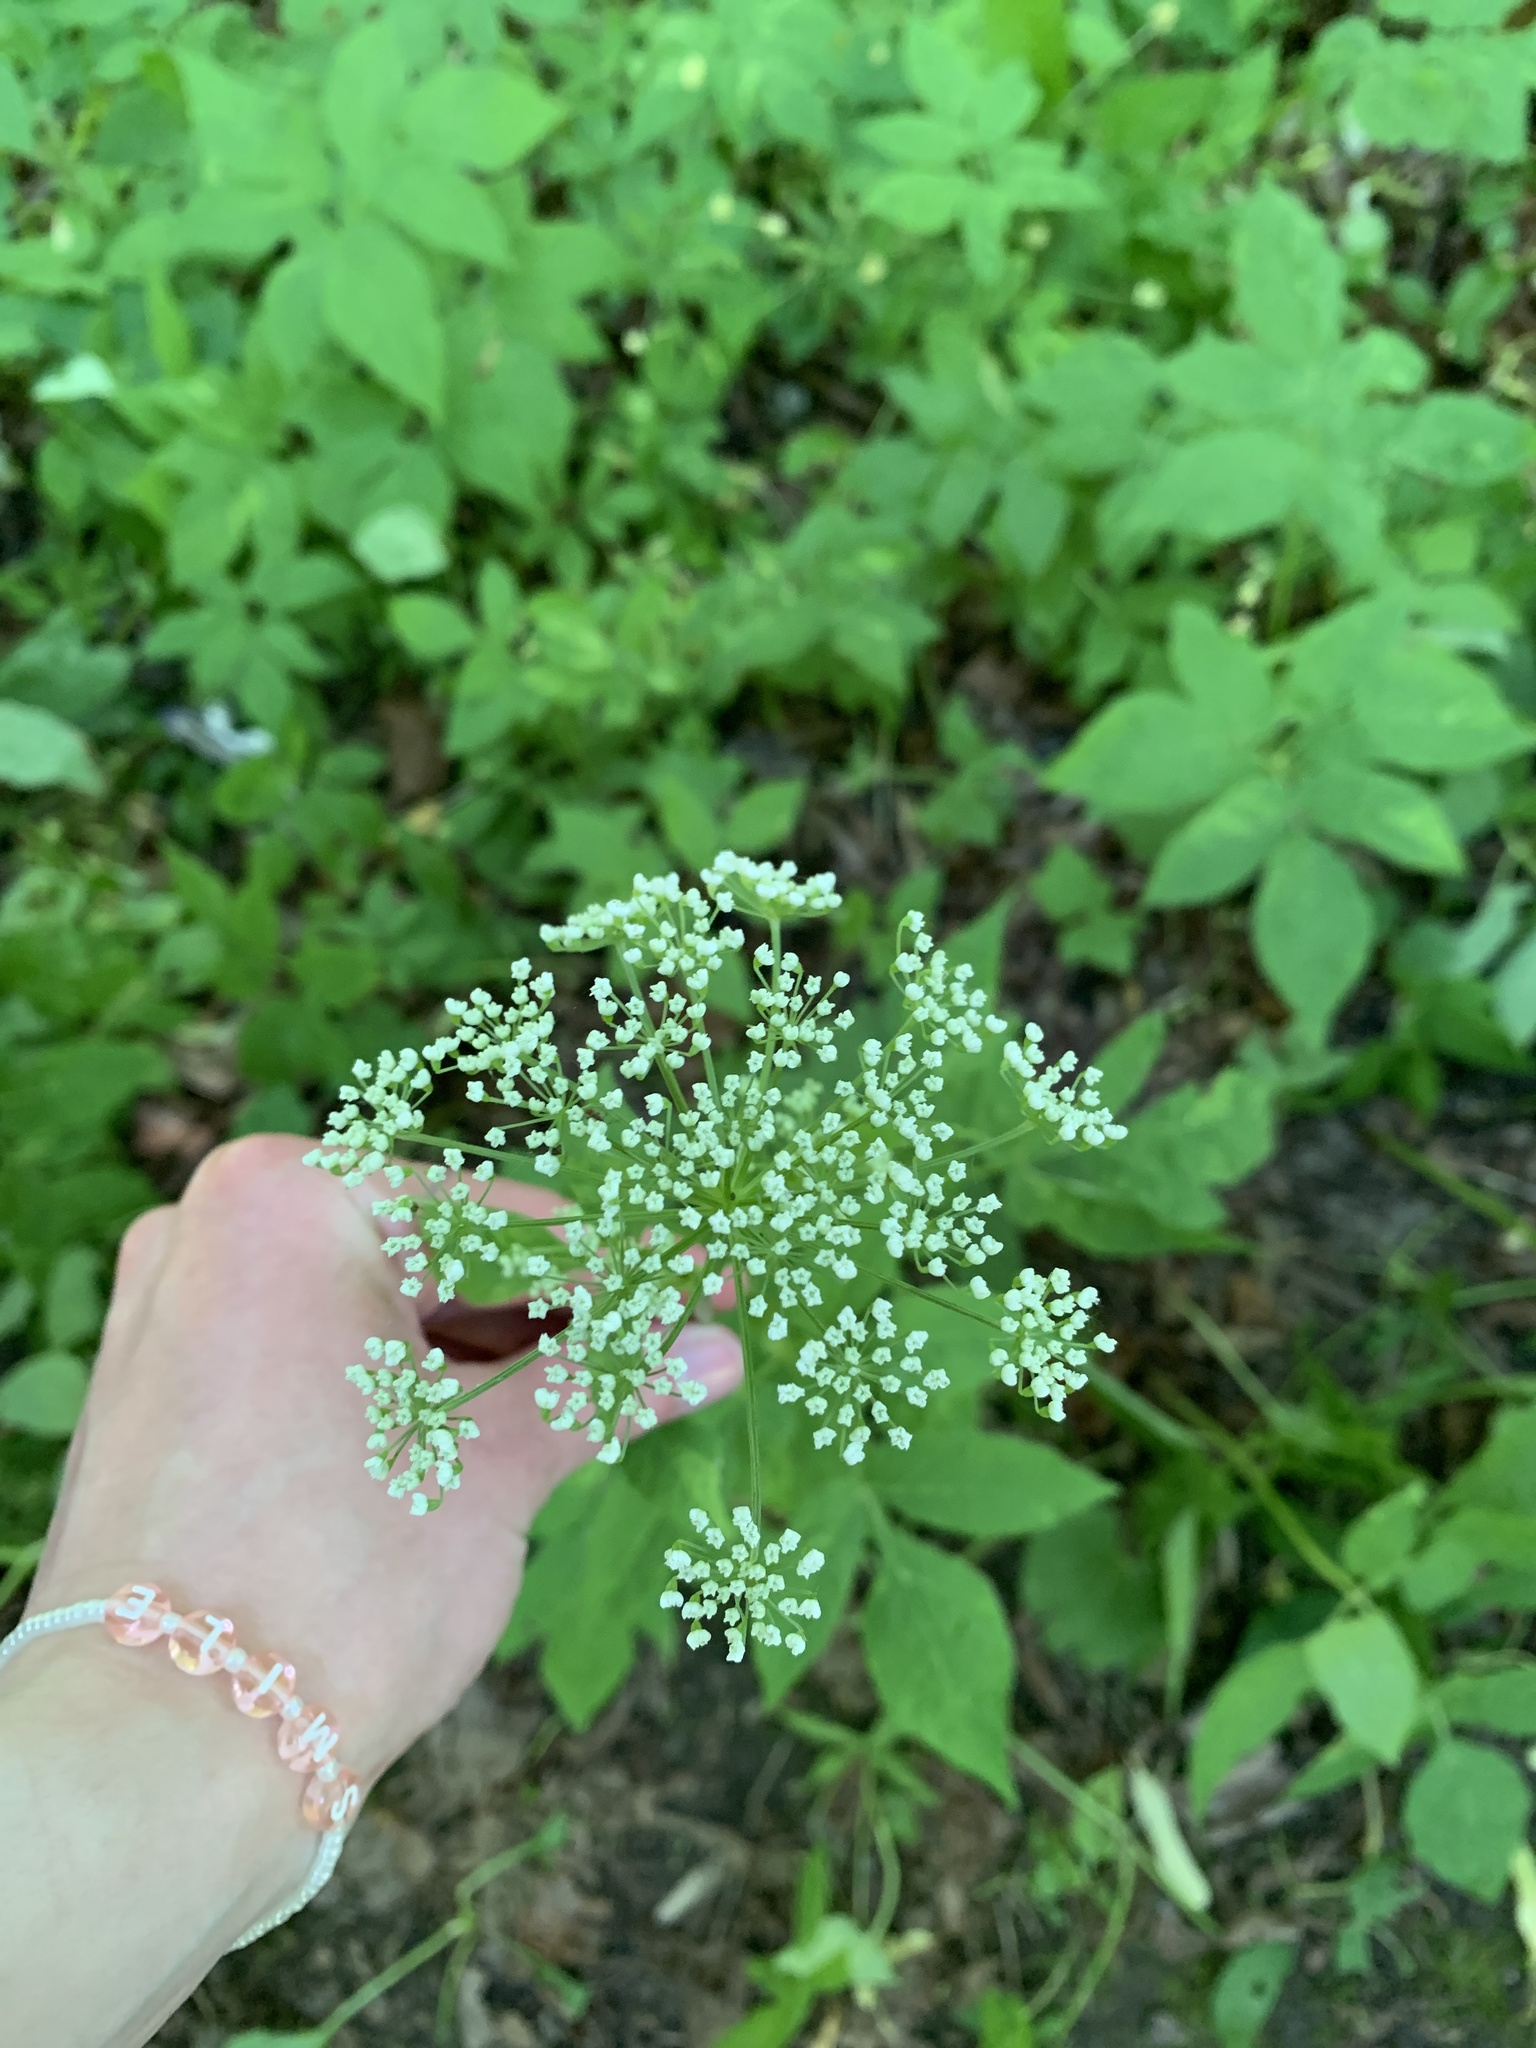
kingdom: Plantae
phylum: Tracheophyta
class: Magnoliopsida
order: Apiales
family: Apiaceae
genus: Aegopodium
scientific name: Aegopodium podagraria
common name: Ground-elder
